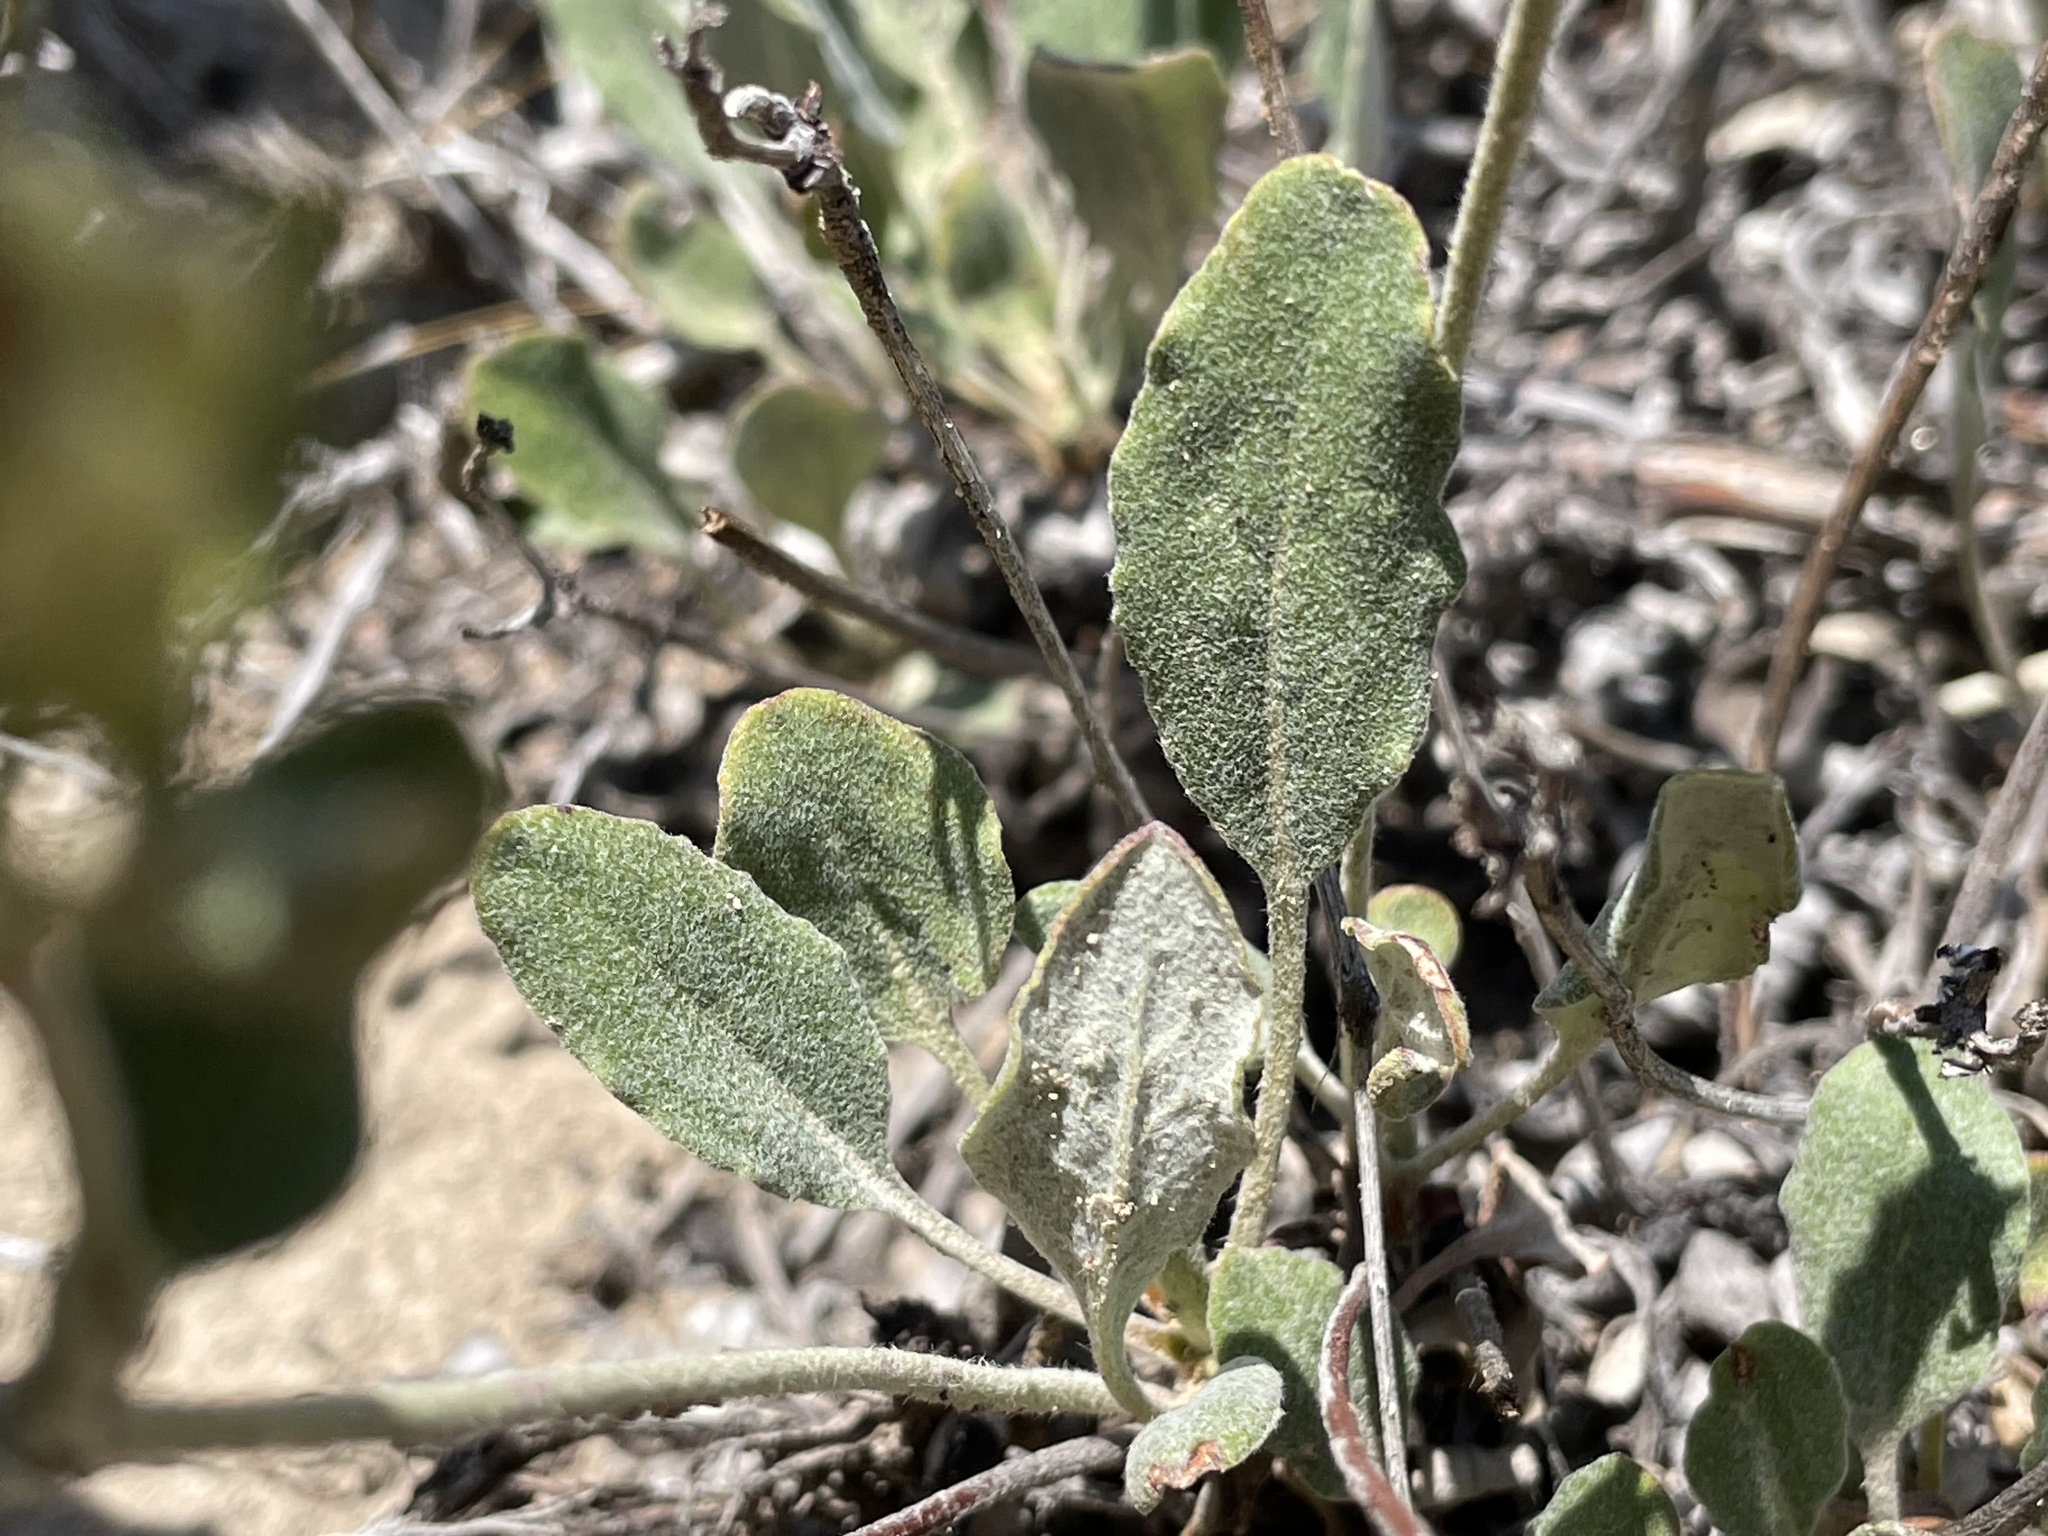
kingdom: Plantae
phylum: Tracheophyta
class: Magnoliopsida
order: Caryophyllales
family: Polygonaceae
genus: Eriogonum
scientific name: Eriogonum jamesii
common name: Antelope-sage
